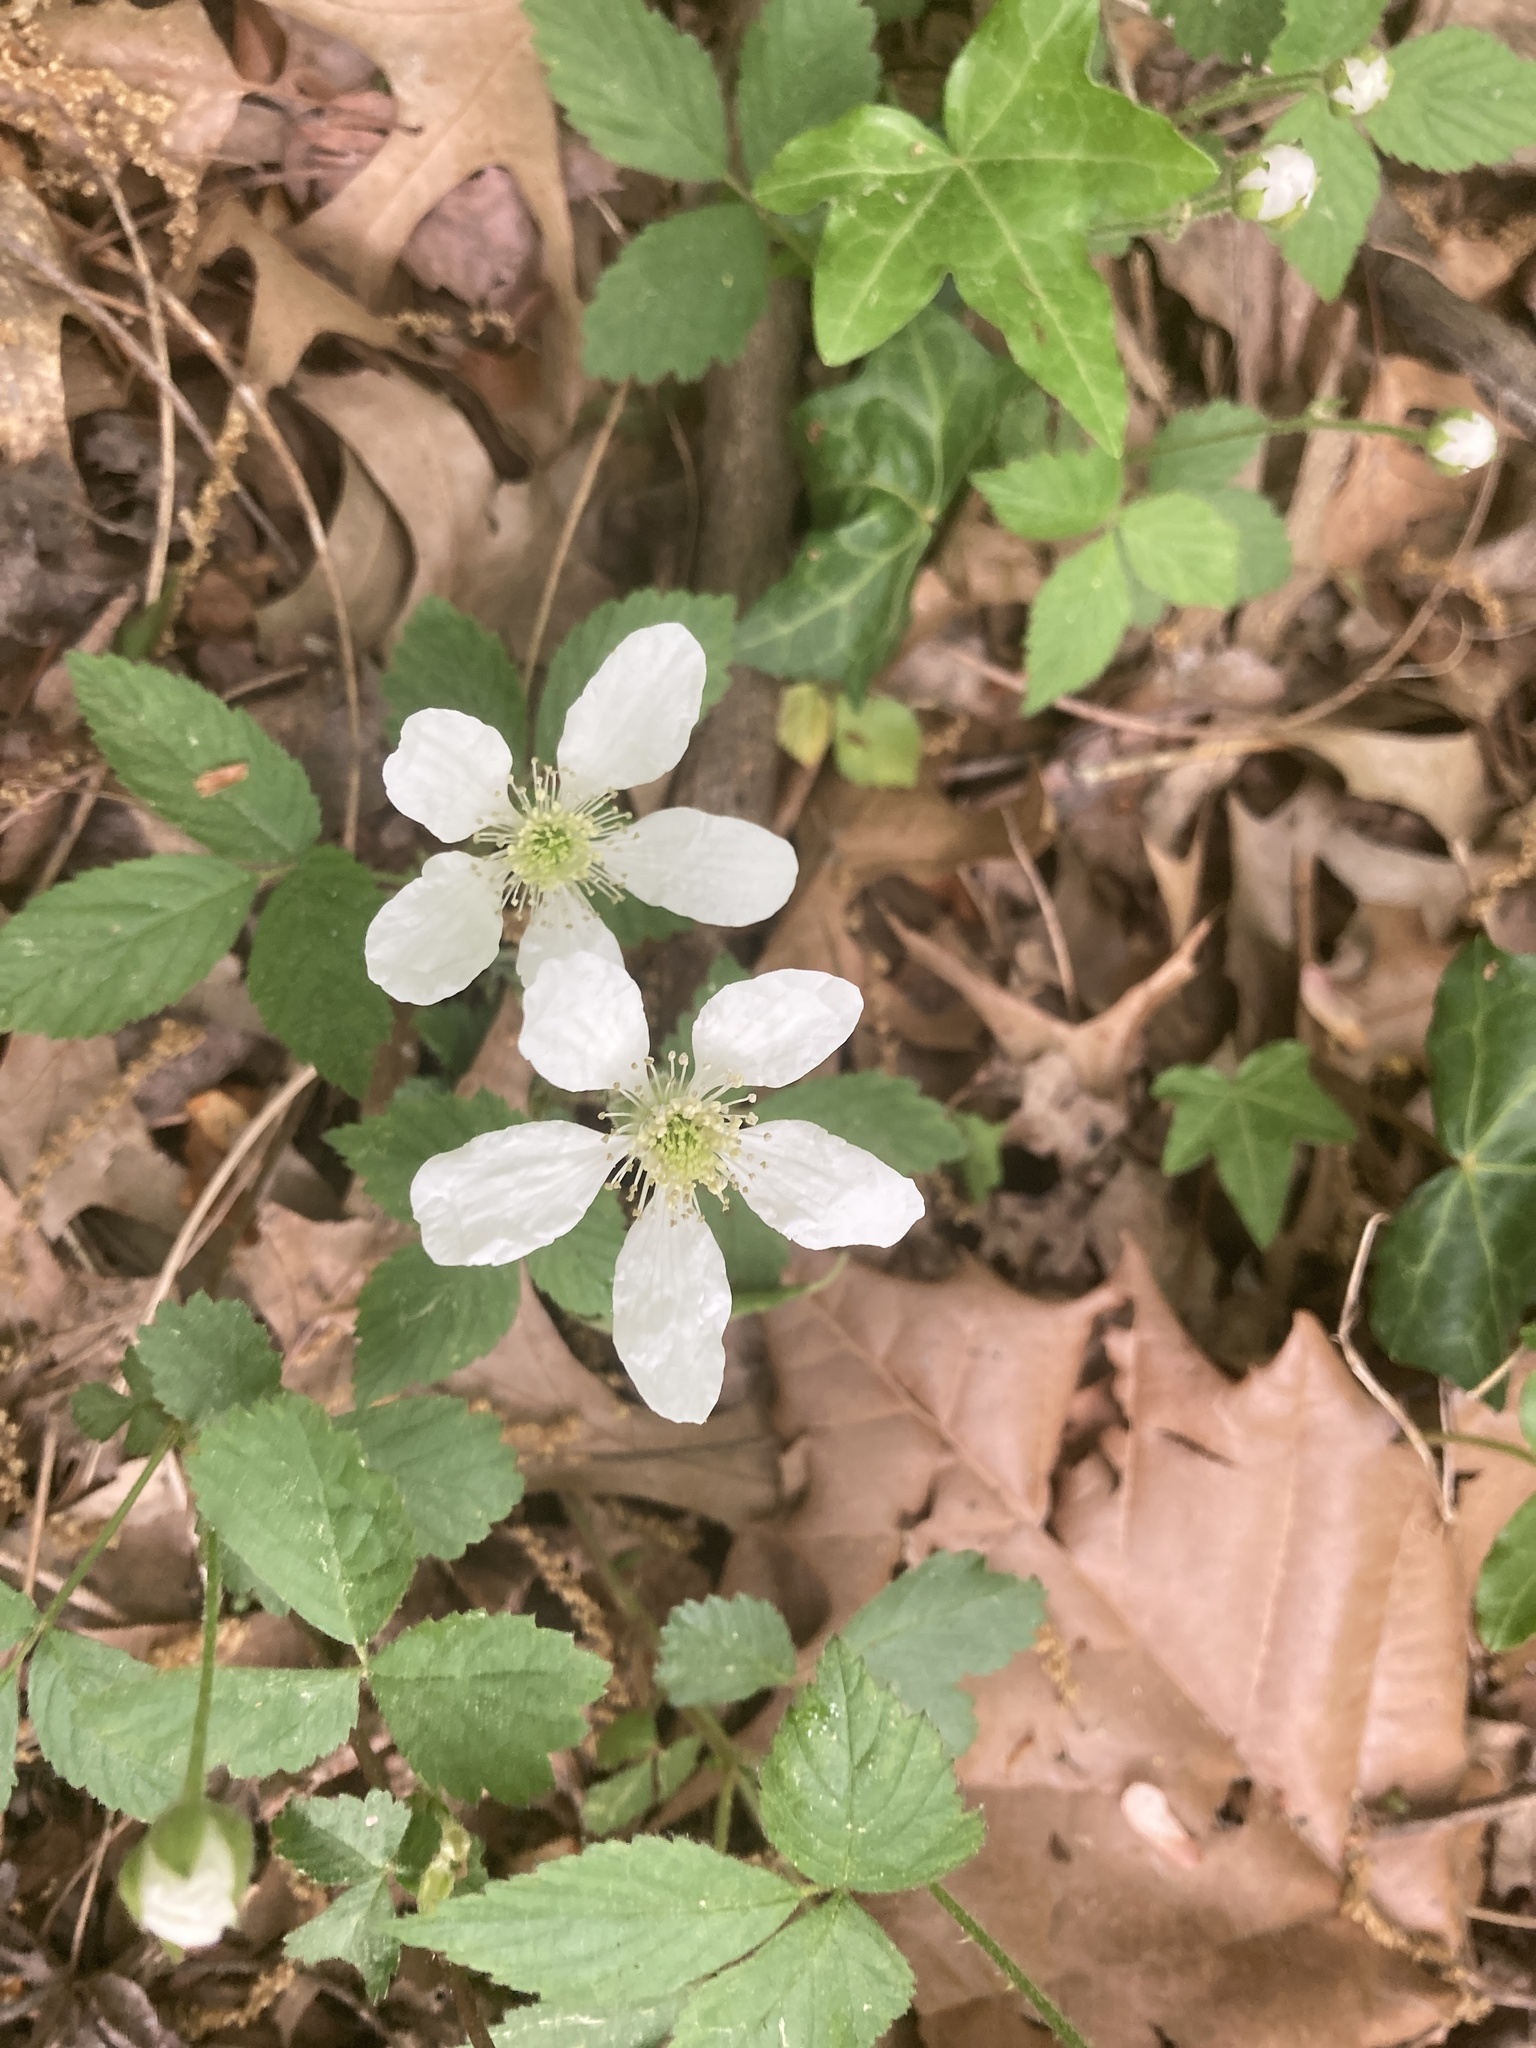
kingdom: Plantae
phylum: Tracheophyta
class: Magnoliopsida
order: Rosales
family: Rosaceae
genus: Rubus
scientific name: Rubus flagellaris
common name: American dewberry
